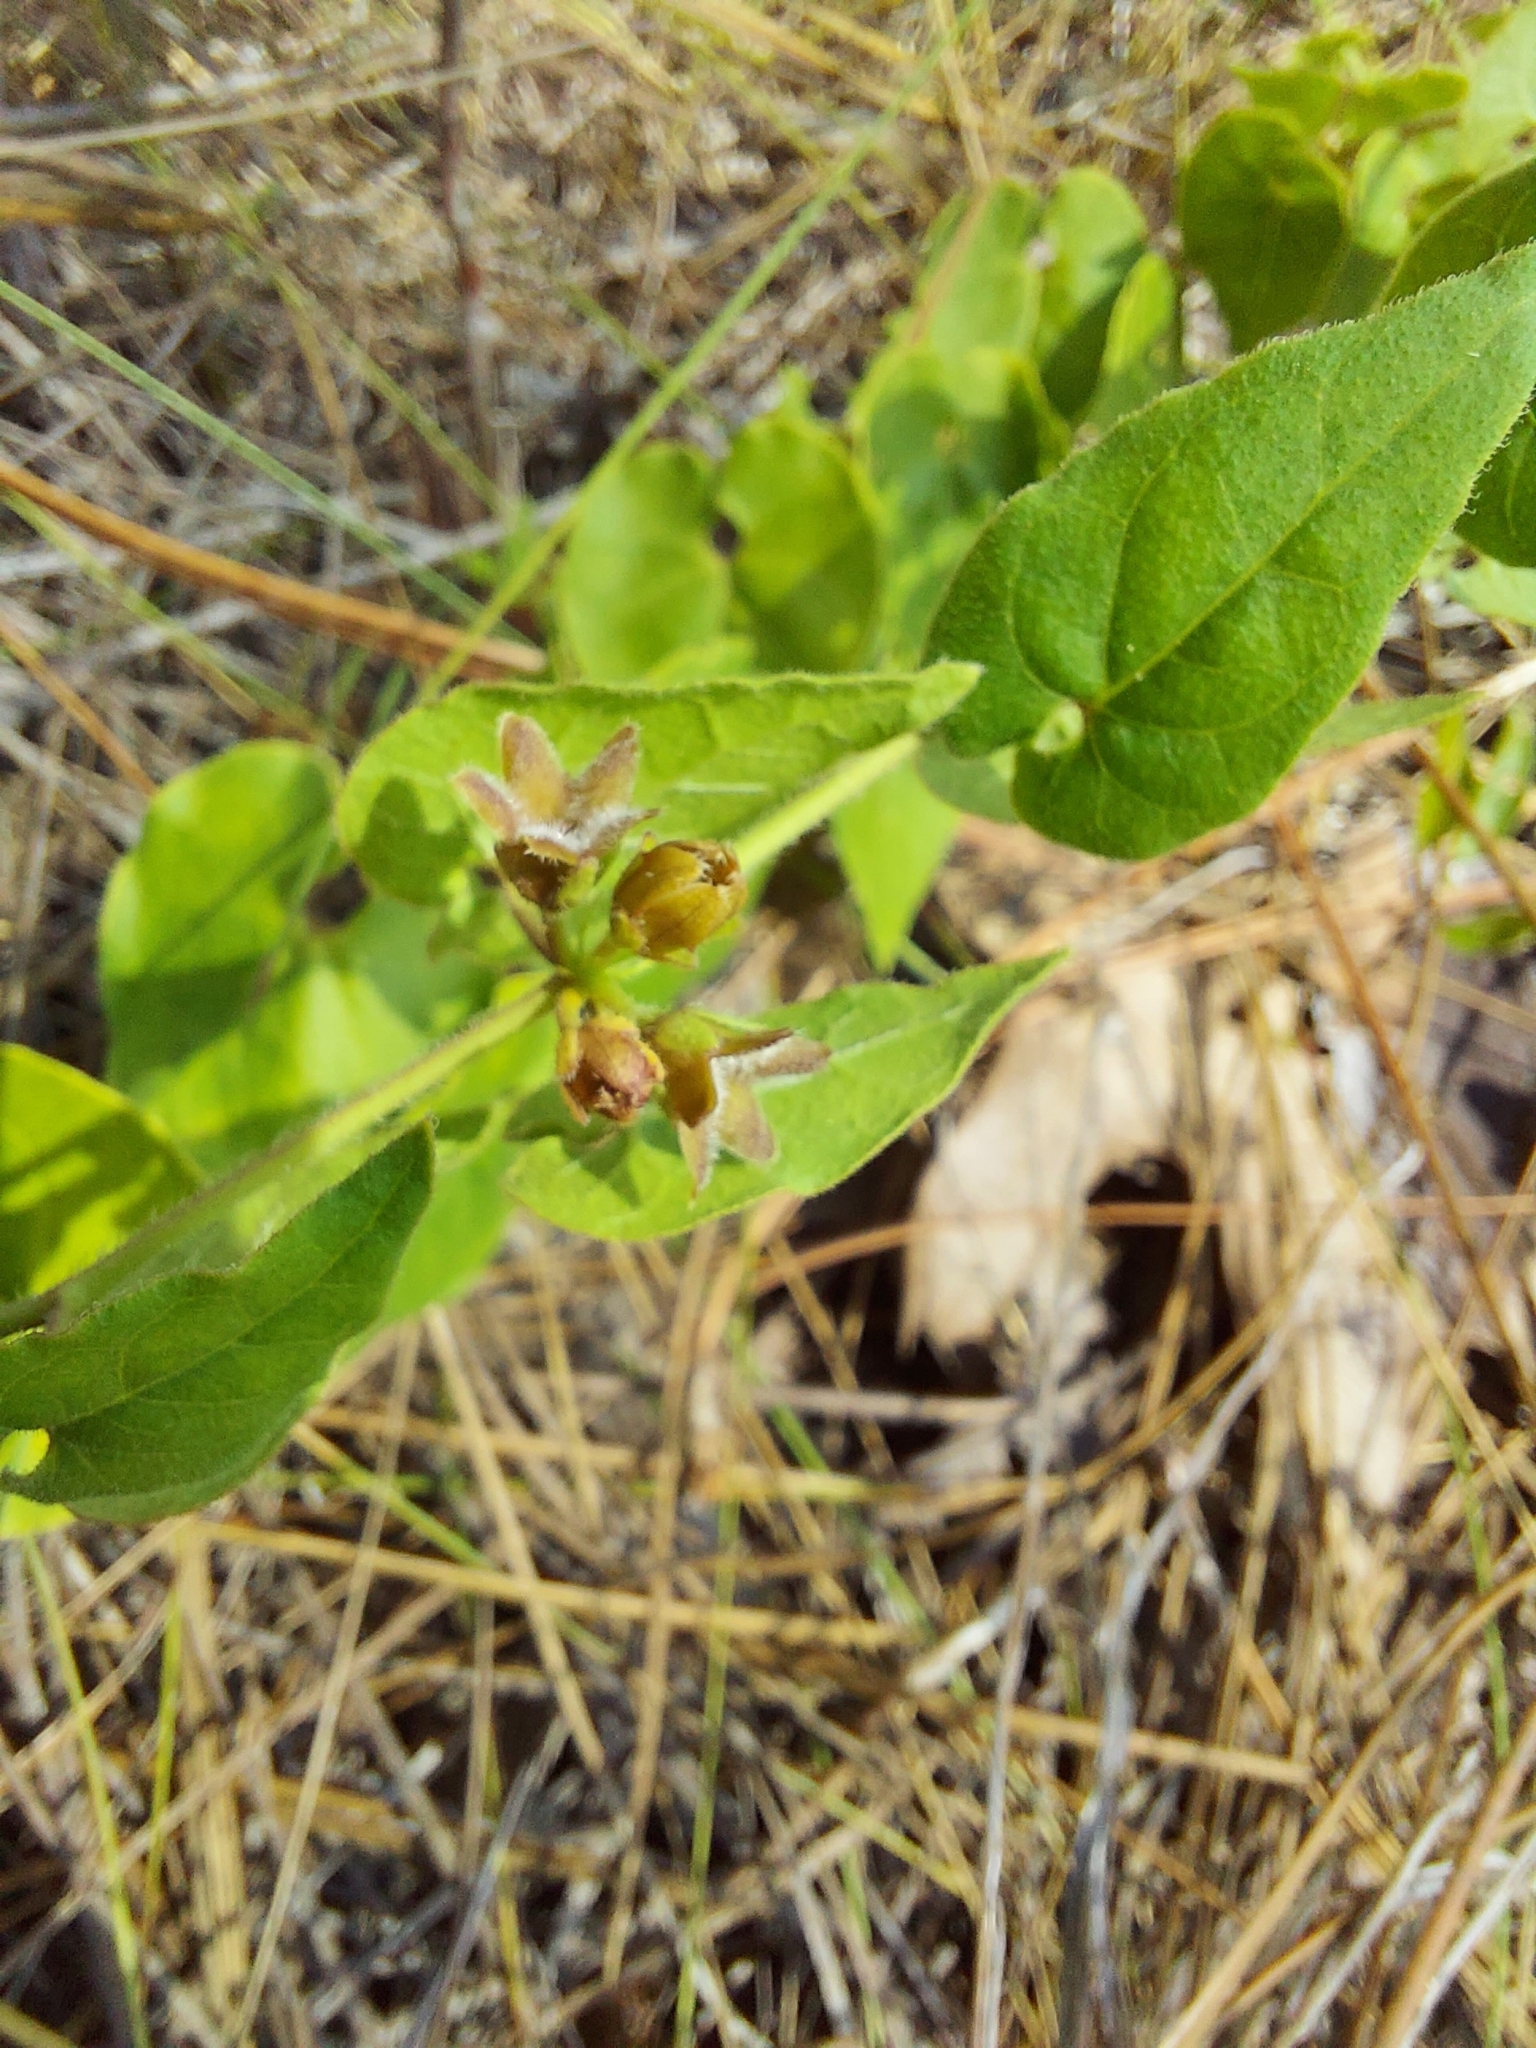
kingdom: Plantae
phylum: Tracheophyta
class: Magnoliopsida
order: Gentianales
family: Apocynaceae
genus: Chthamalia
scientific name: Chthamalia pubiflora
